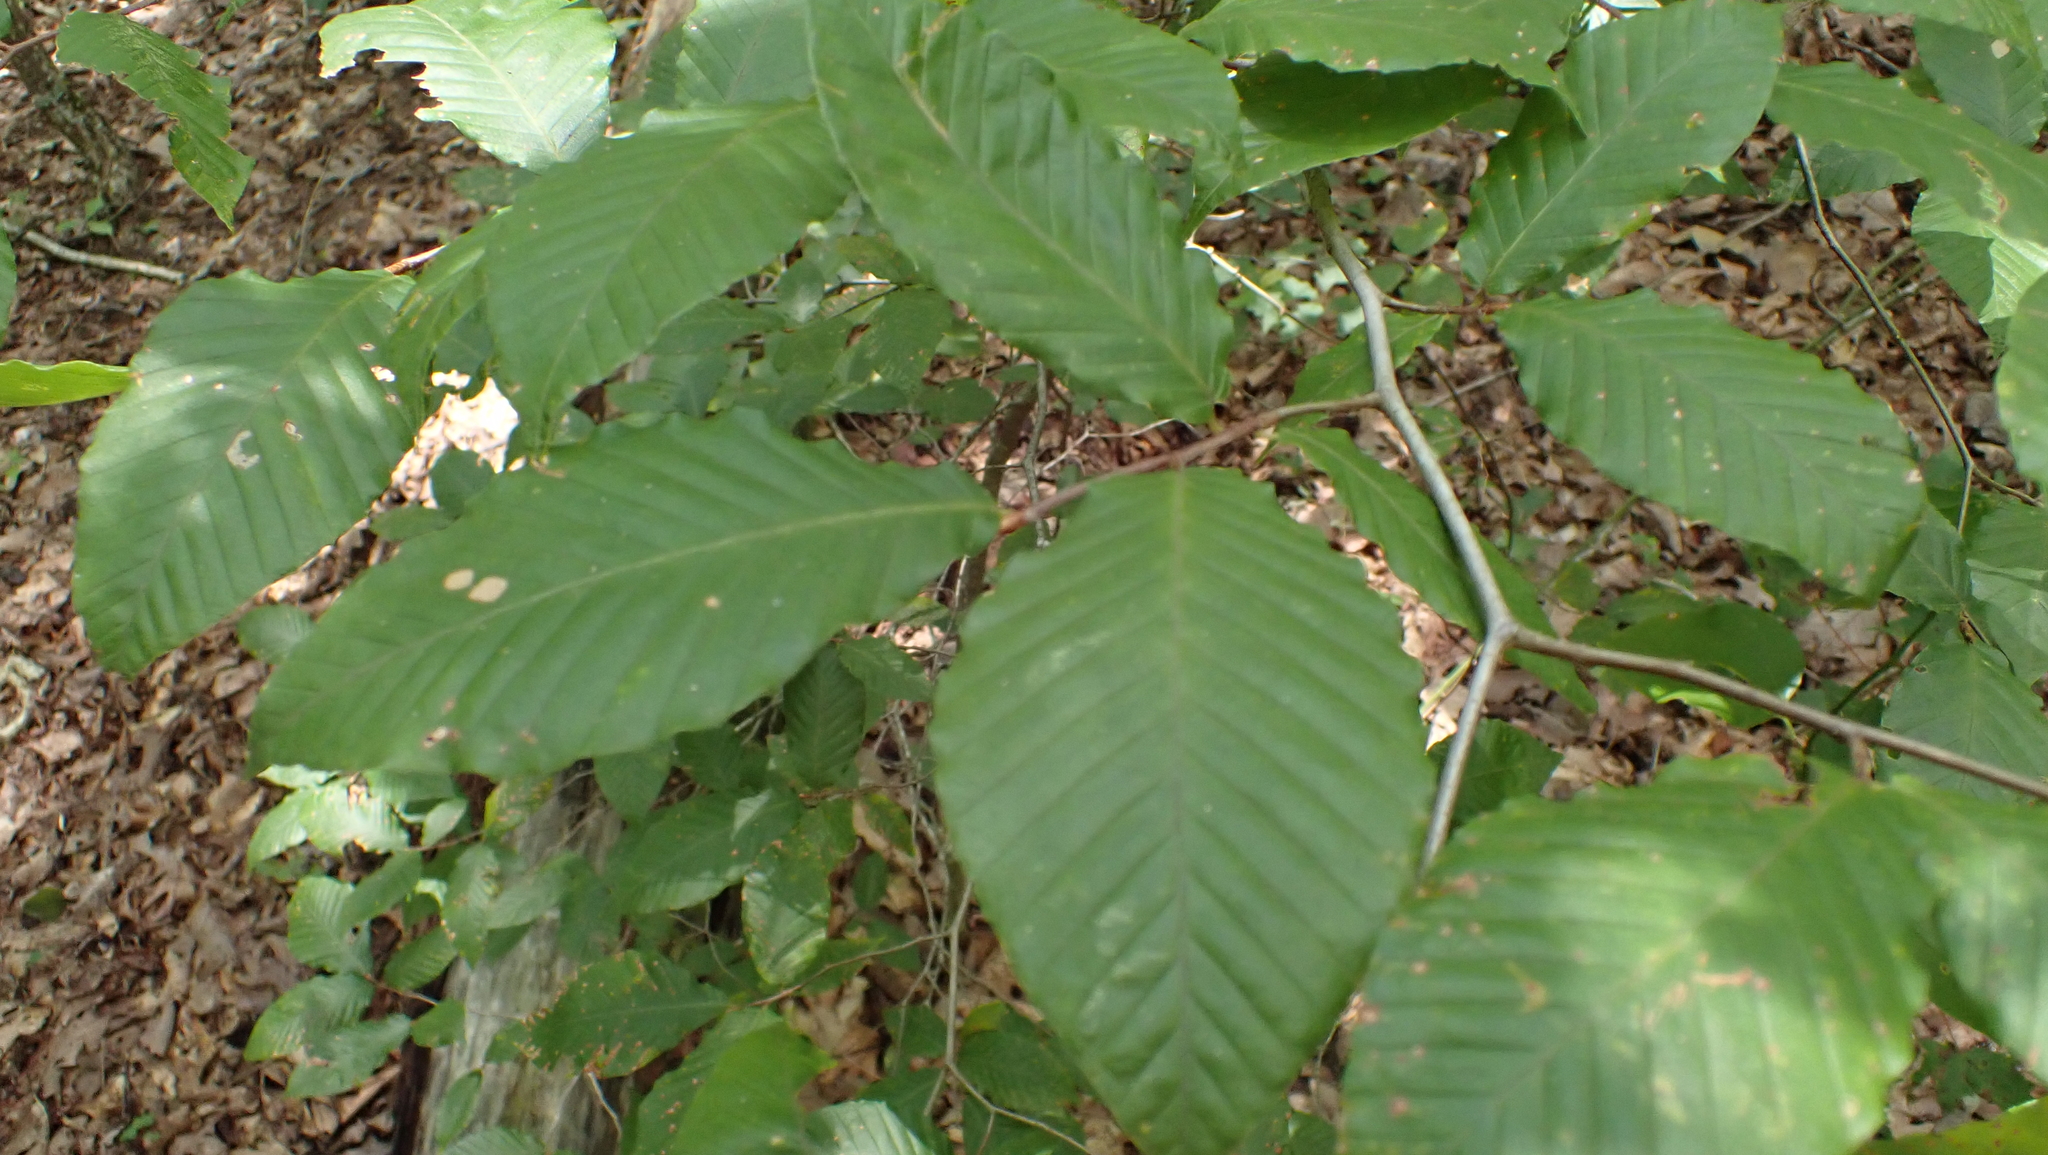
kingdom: Plantae
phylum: Tracheophyta
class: Magnoliopsida
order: Fagales
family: Fagaceae
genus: Fagus
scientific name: Fagus grandifolia
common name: American beech
